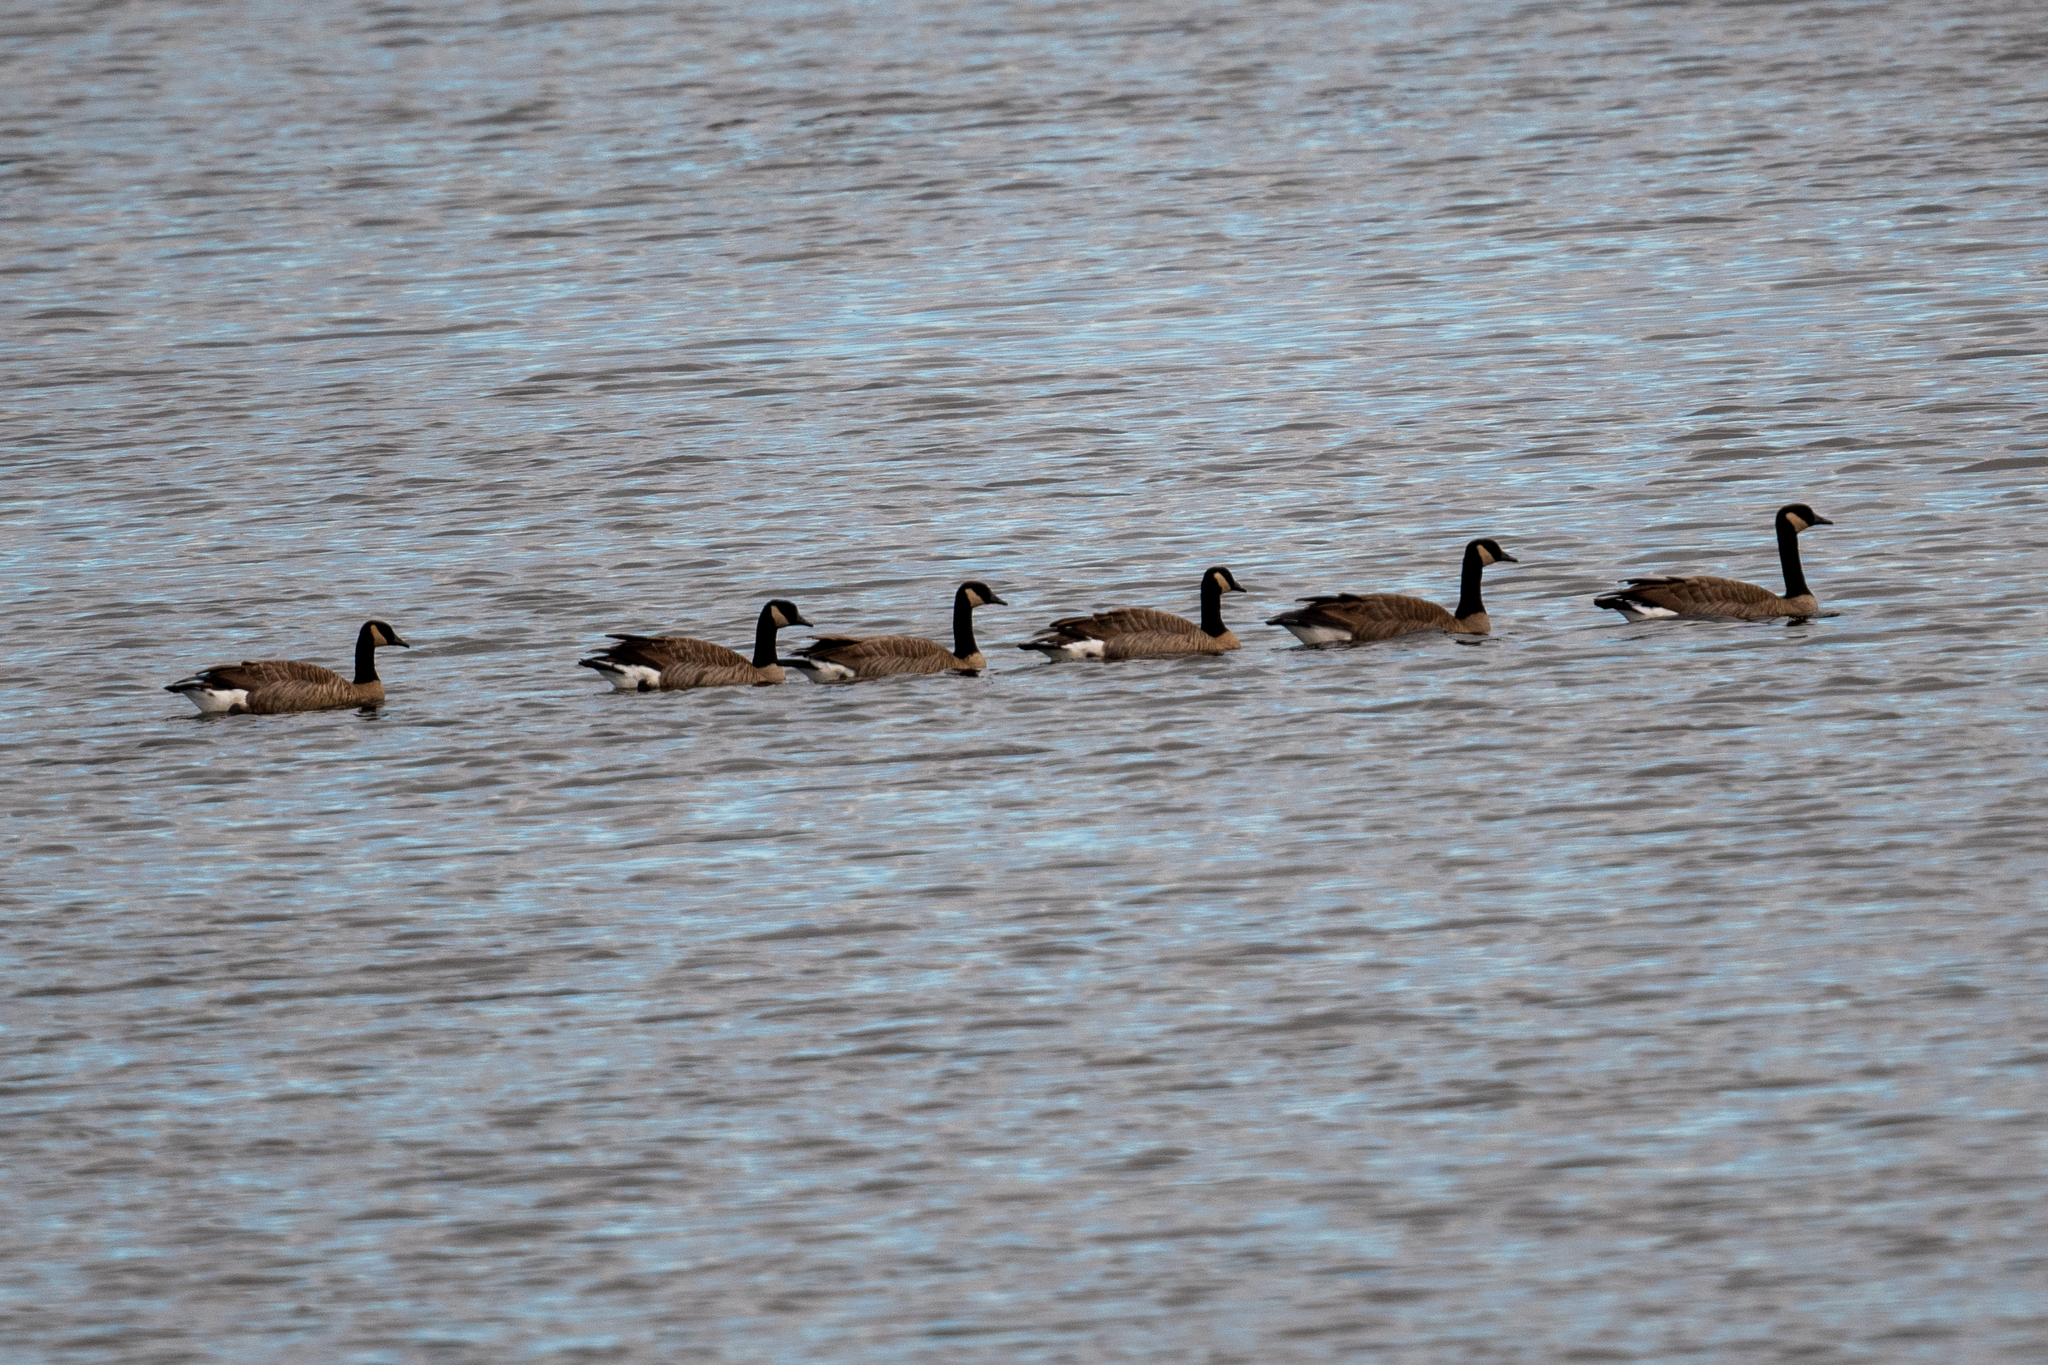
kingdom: Animalia
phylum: Chordata
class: Aves
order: Anseriformes
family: Anatidae
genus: Branta
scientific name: Branta canadensis
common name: Canada goose
